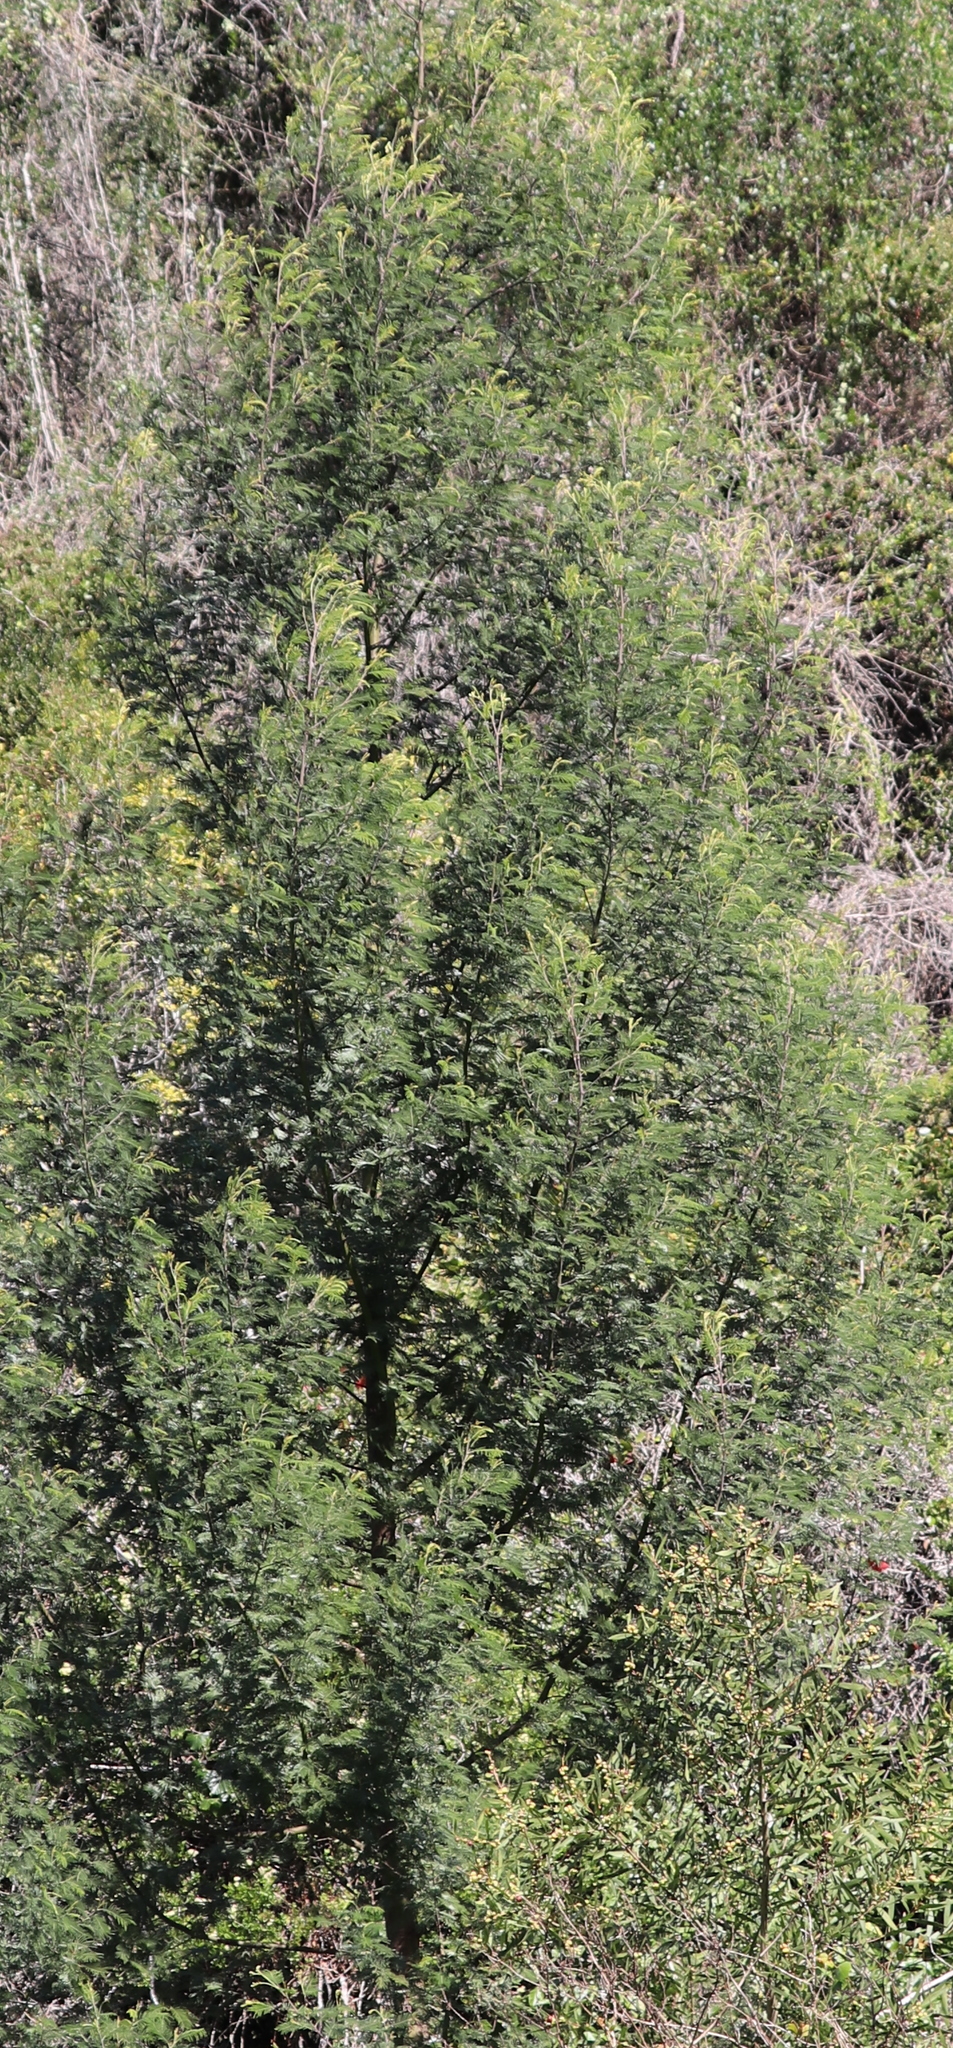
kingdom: Plantae
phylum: Tracheophyta
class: Magnoliopsida
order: Fabales
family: Fabaceae
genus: Acacia
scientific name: Acacia mearnsii
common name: Black wattle
